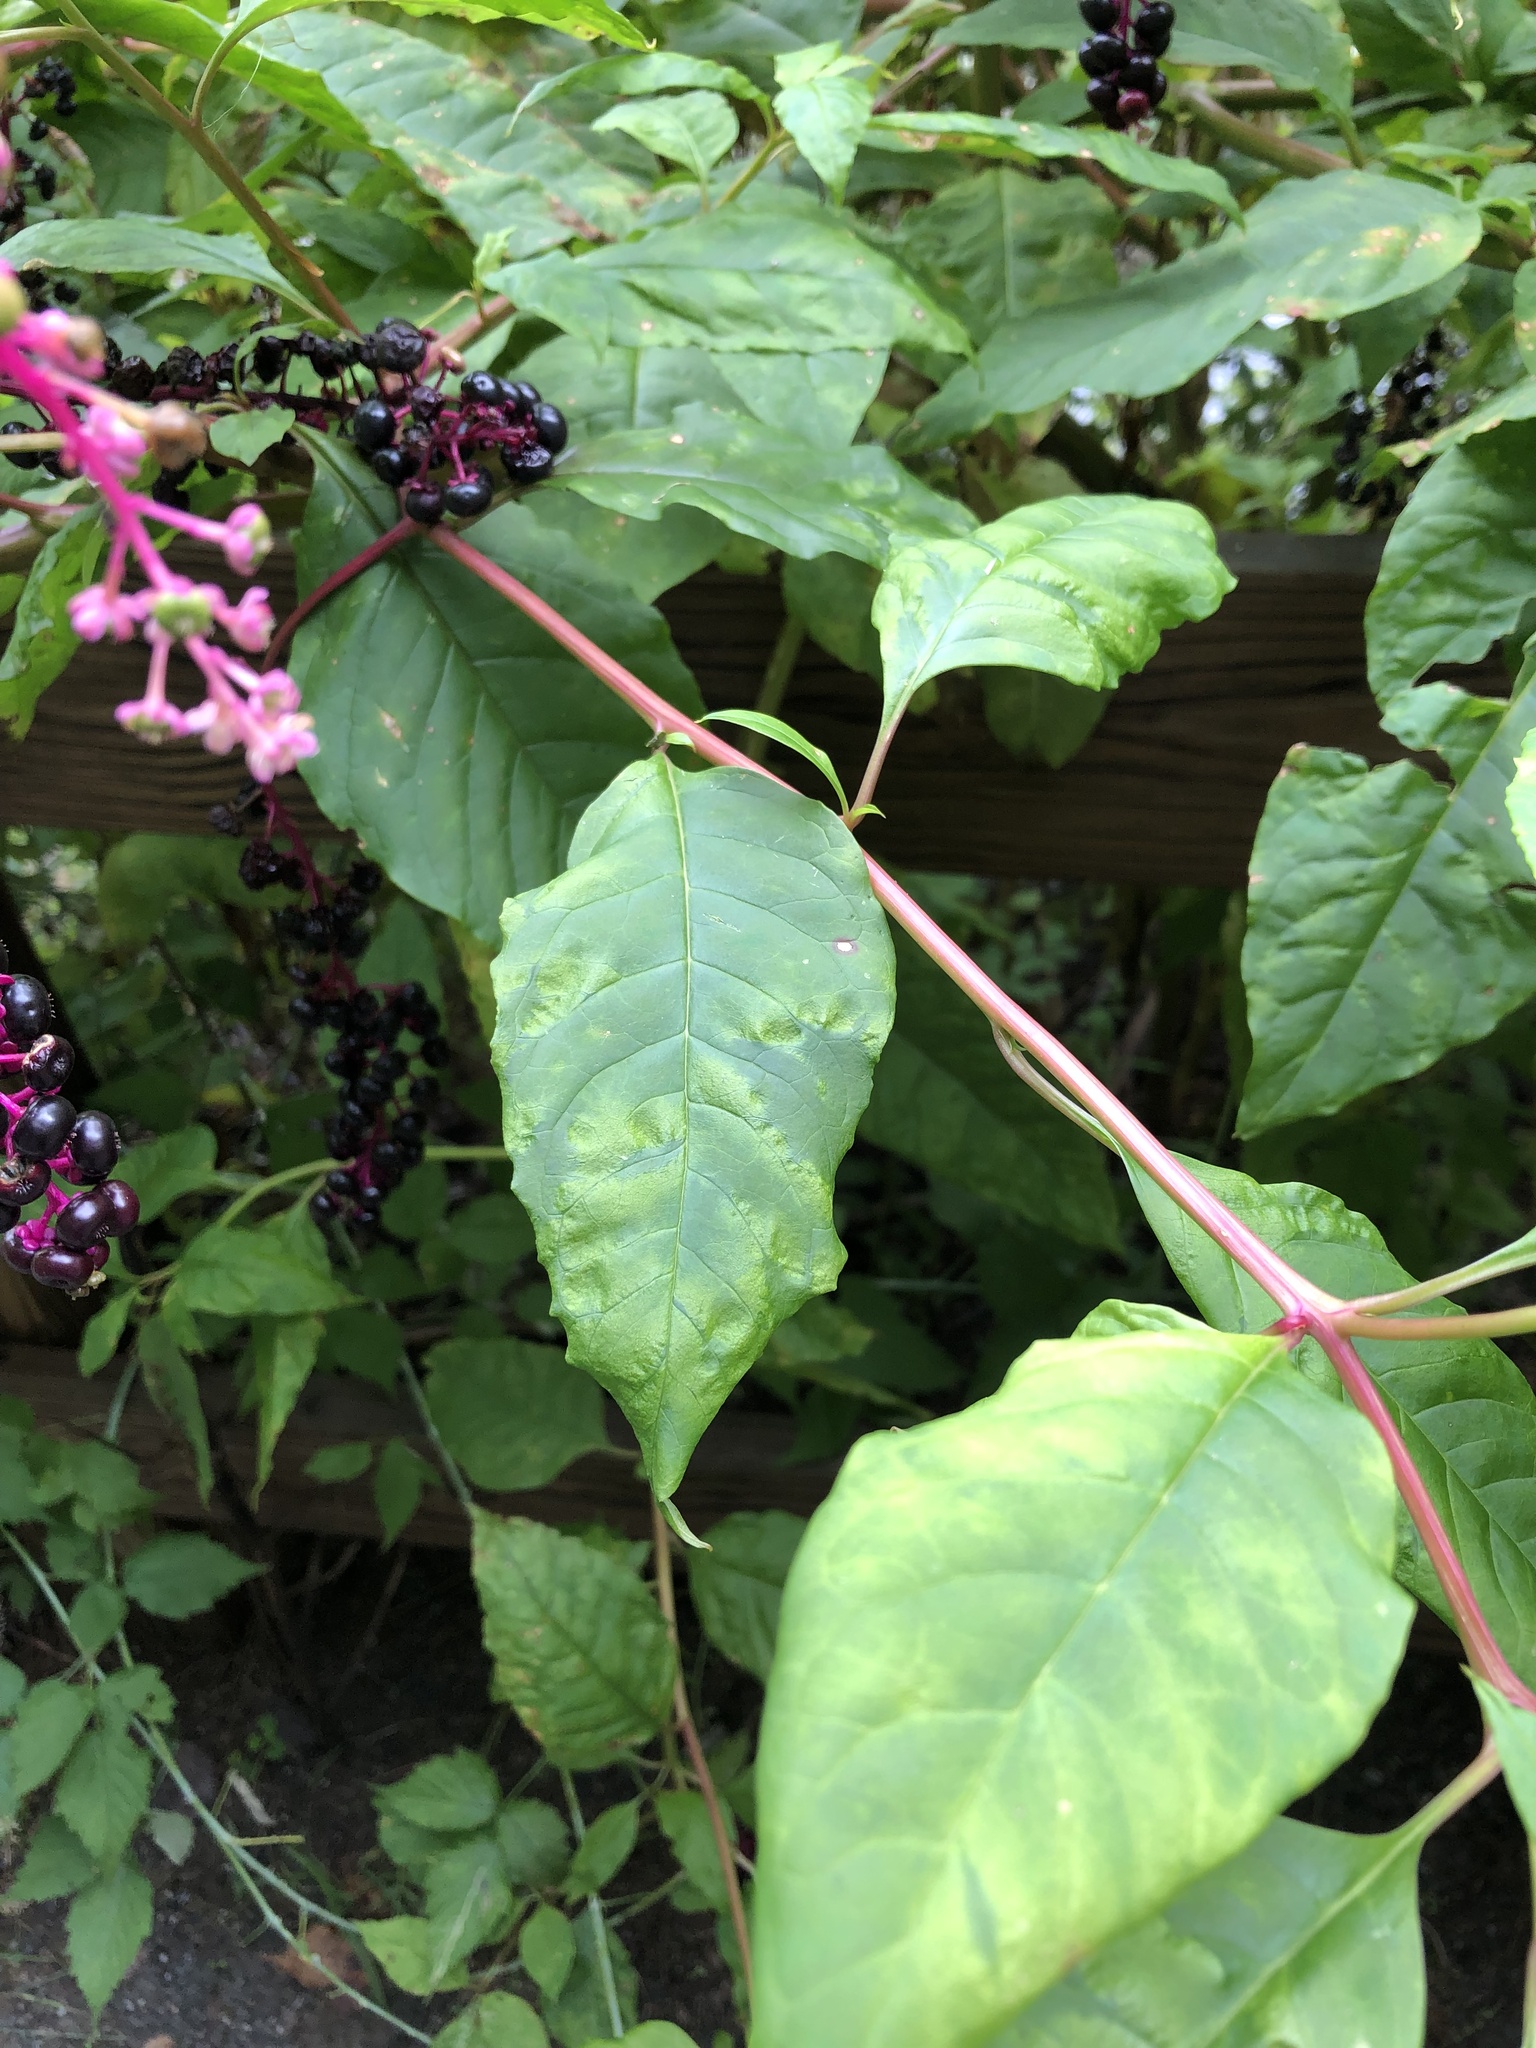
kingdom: Viruses
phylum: Pisuviricota
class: Stelpaviricetes
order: Patatavirales
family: Potyviridae
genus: Potyvirus
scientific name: Potyvirus Pokeweed mosaic virus
